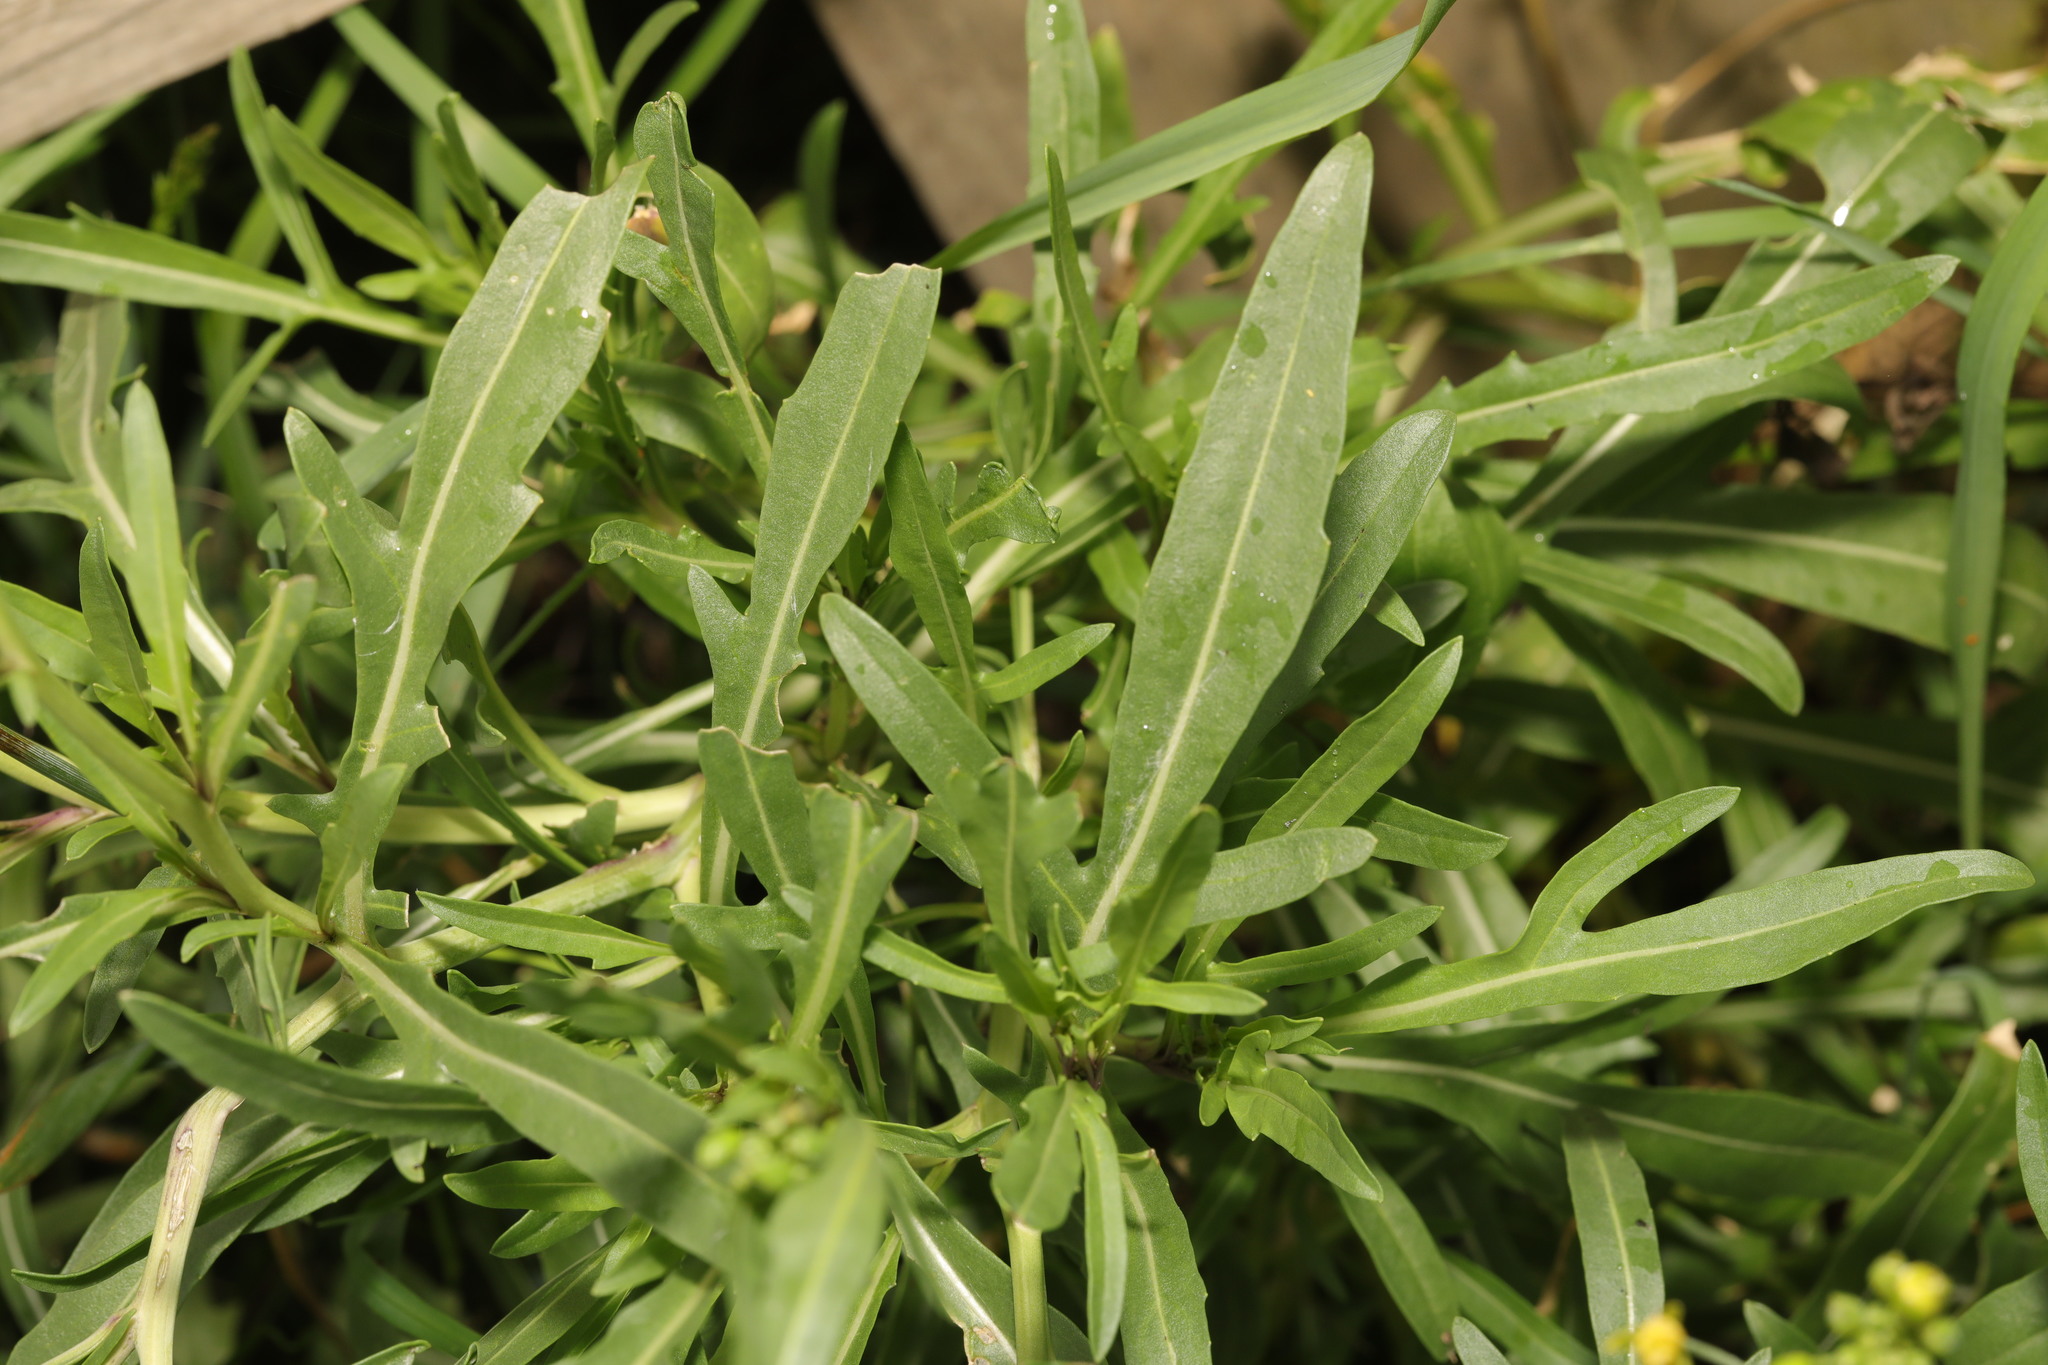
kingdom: Plantae
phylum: Tracheophyta
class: Magnoliopsida
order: Brassicales
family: Brassicaceae
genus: Diplotaxis
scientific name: Diplotaxis tenuifolia
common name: Perennial wall-rocket
